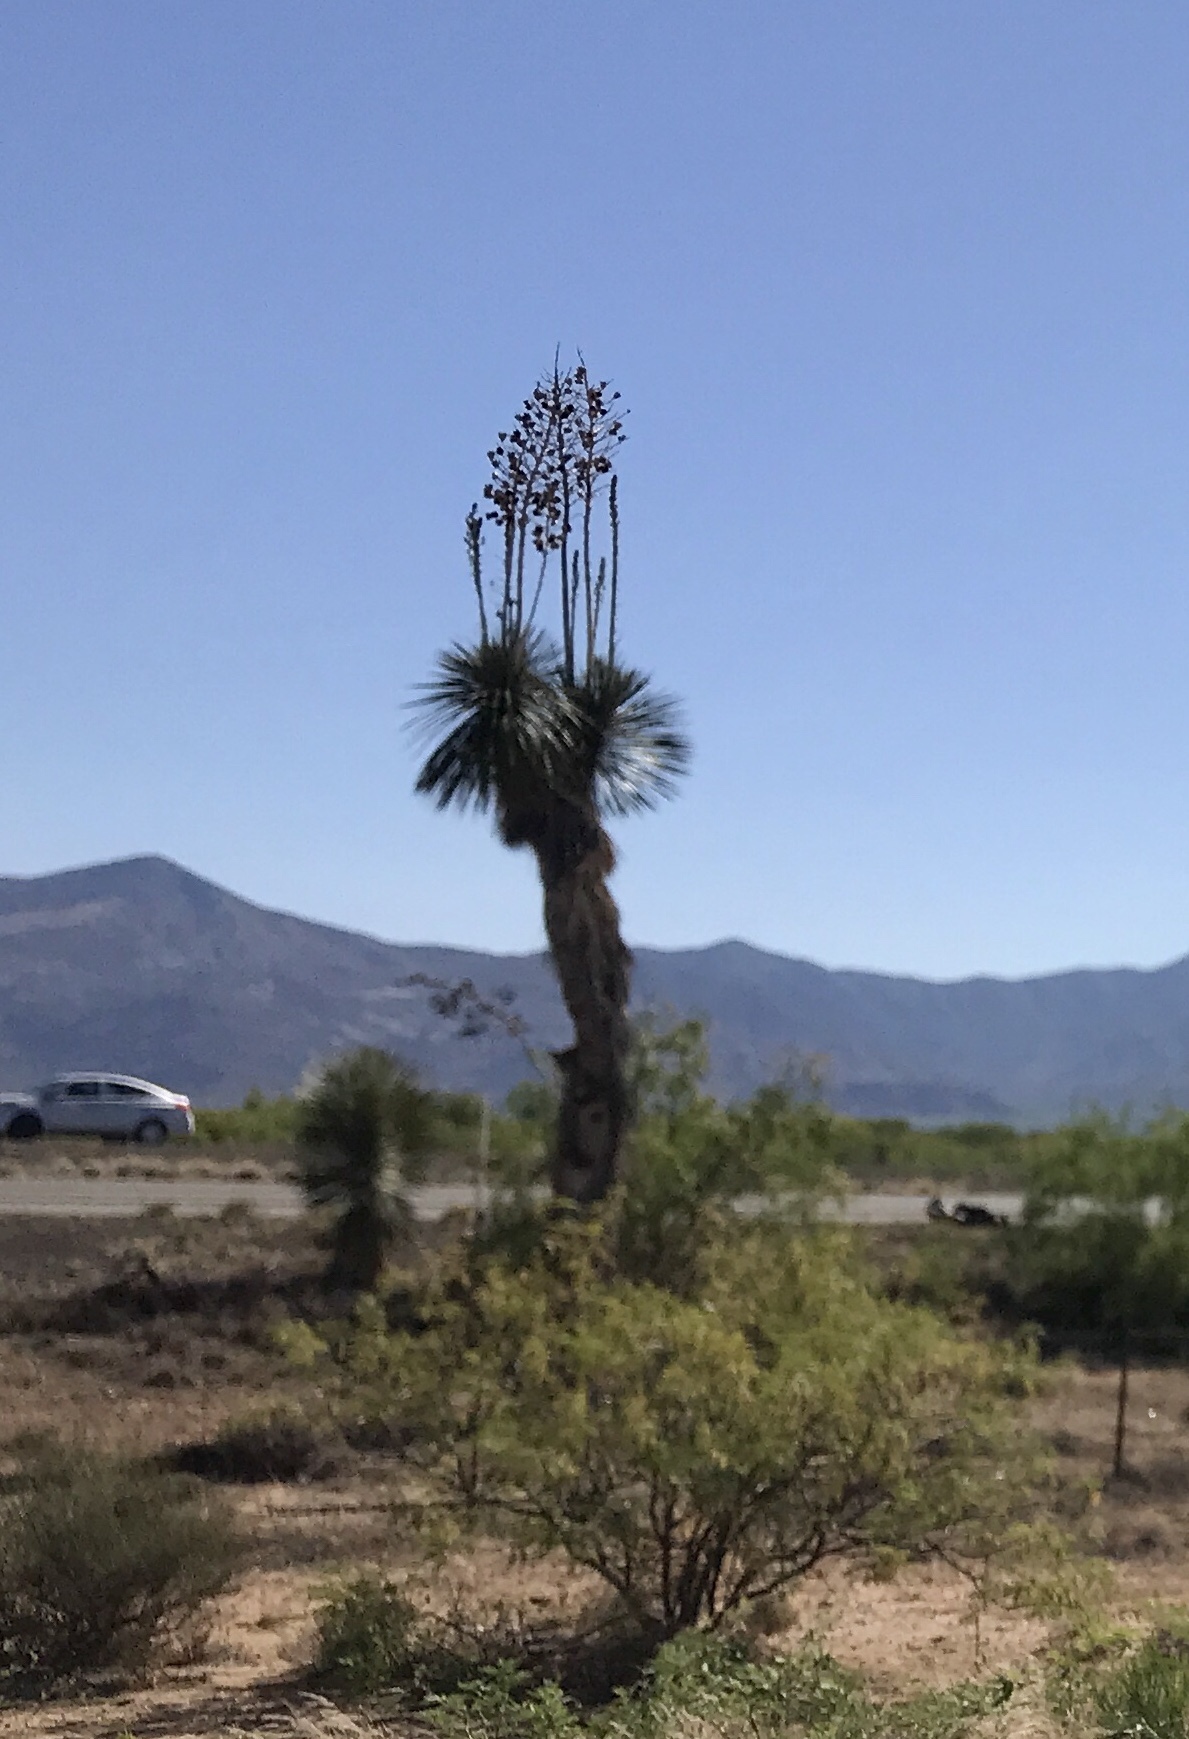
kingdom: Plantae
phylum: Tracheophyta
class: Liliopsida
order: Asparagales
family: Asparagaceae
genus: Yucca
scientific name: Yucca elata
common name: Palmella
